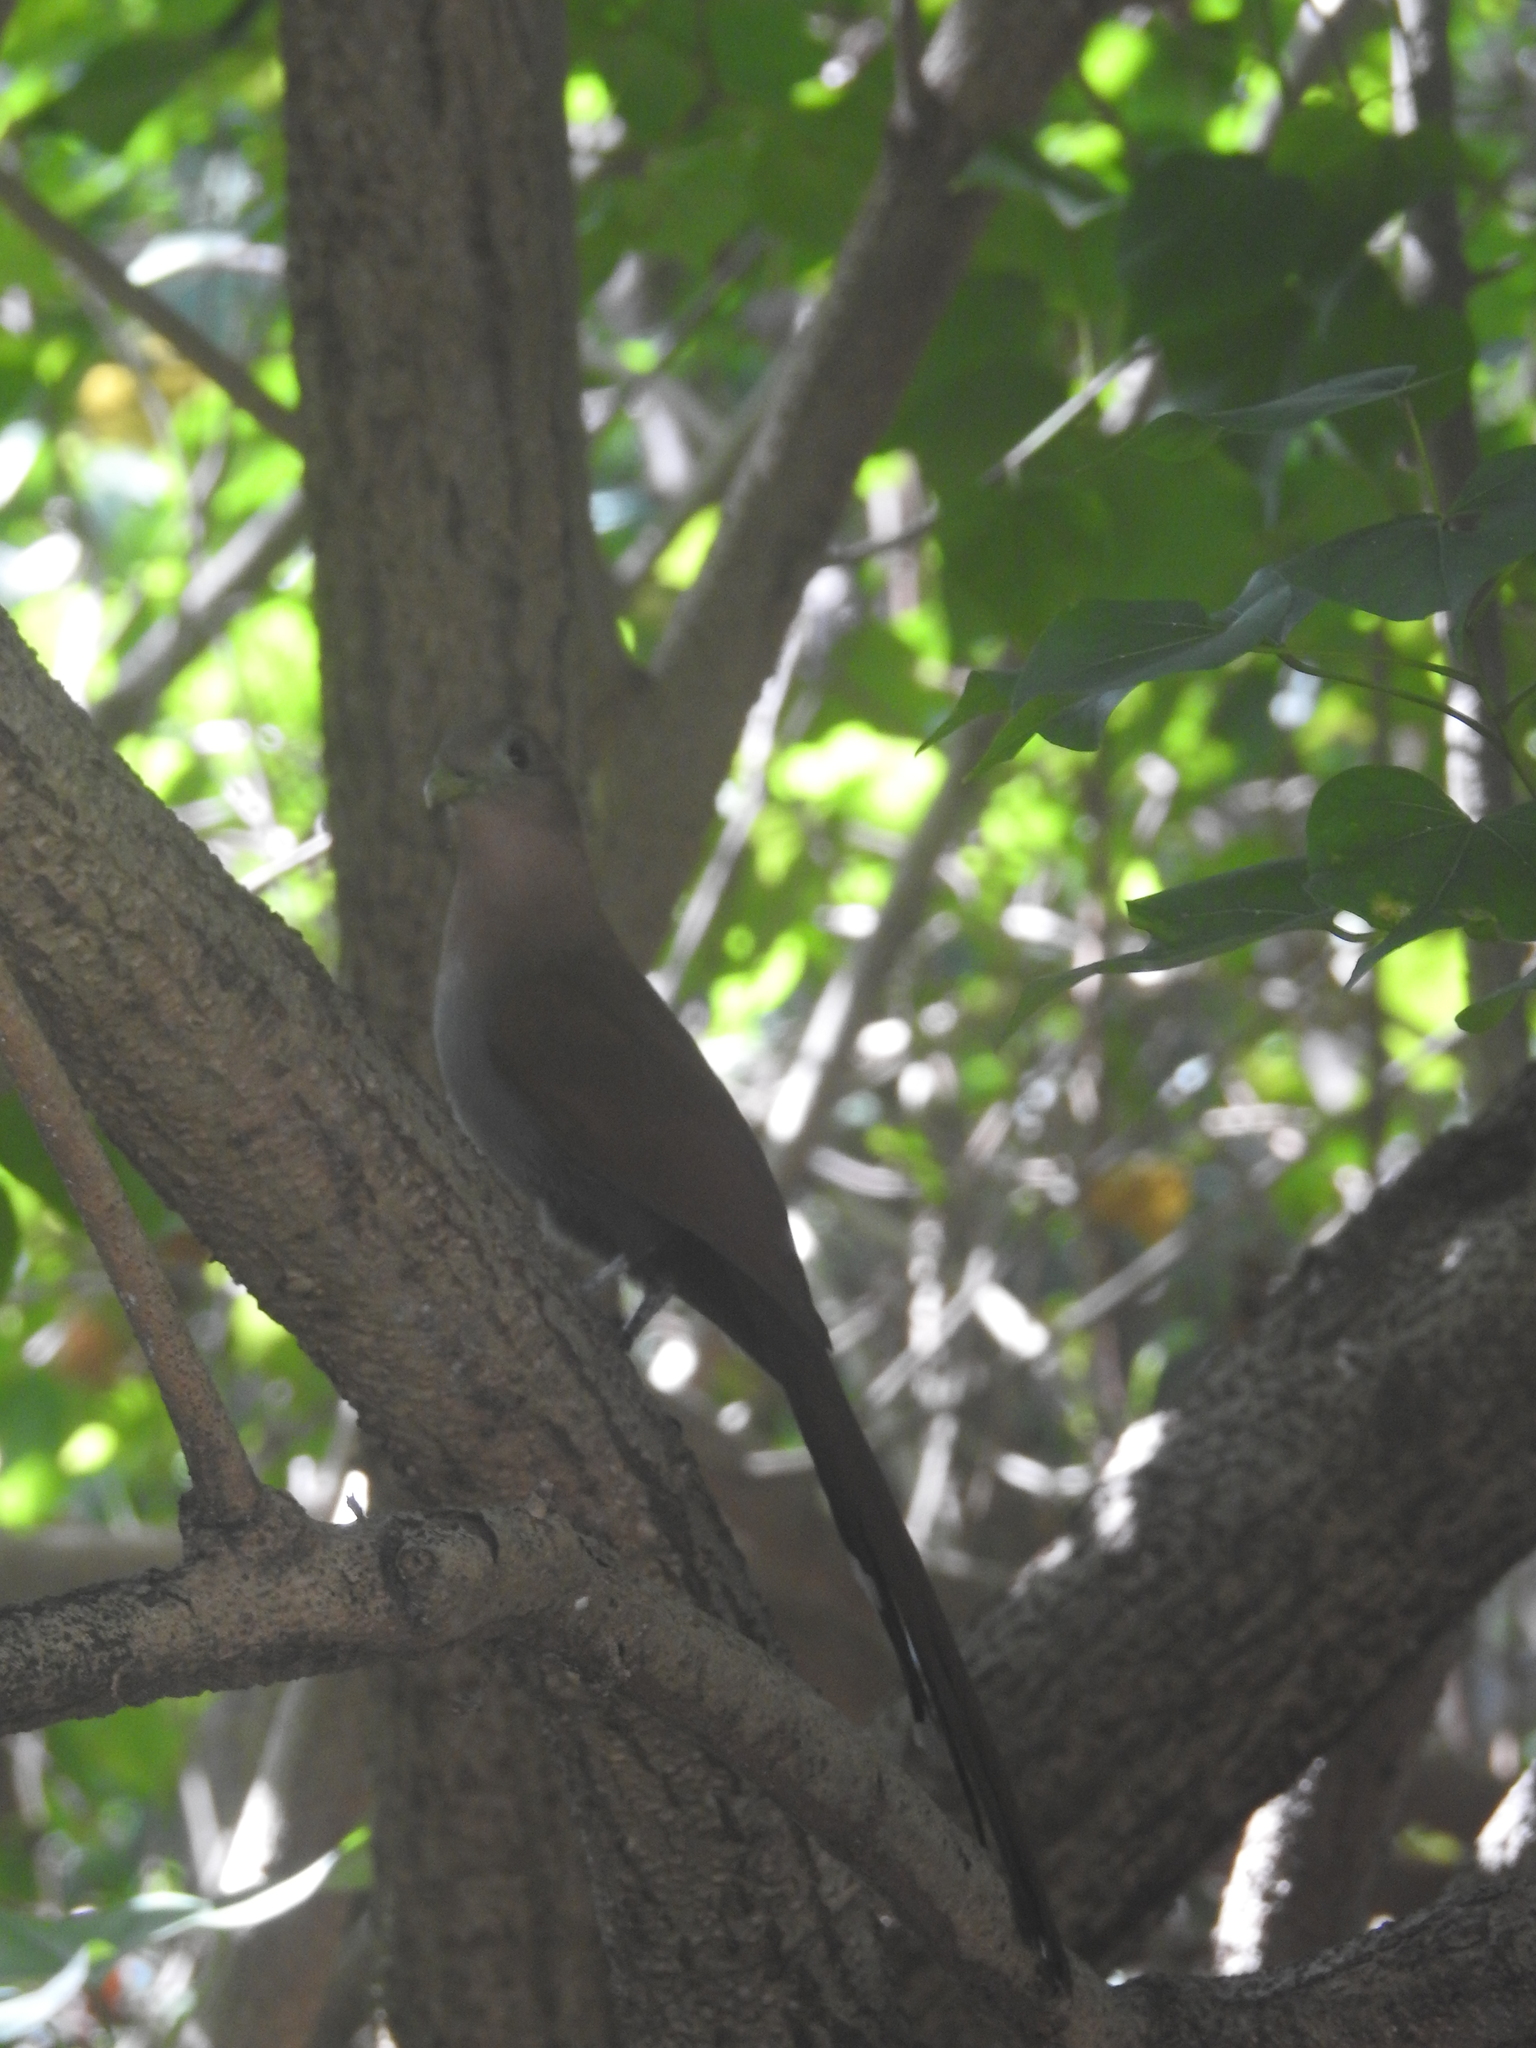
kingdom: Animalia
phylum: Chordata
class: Aves
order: Cuculiformes
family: Cuculidae
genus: Piaya
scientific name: Piaya cayana
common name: Squirrel cuckoo
